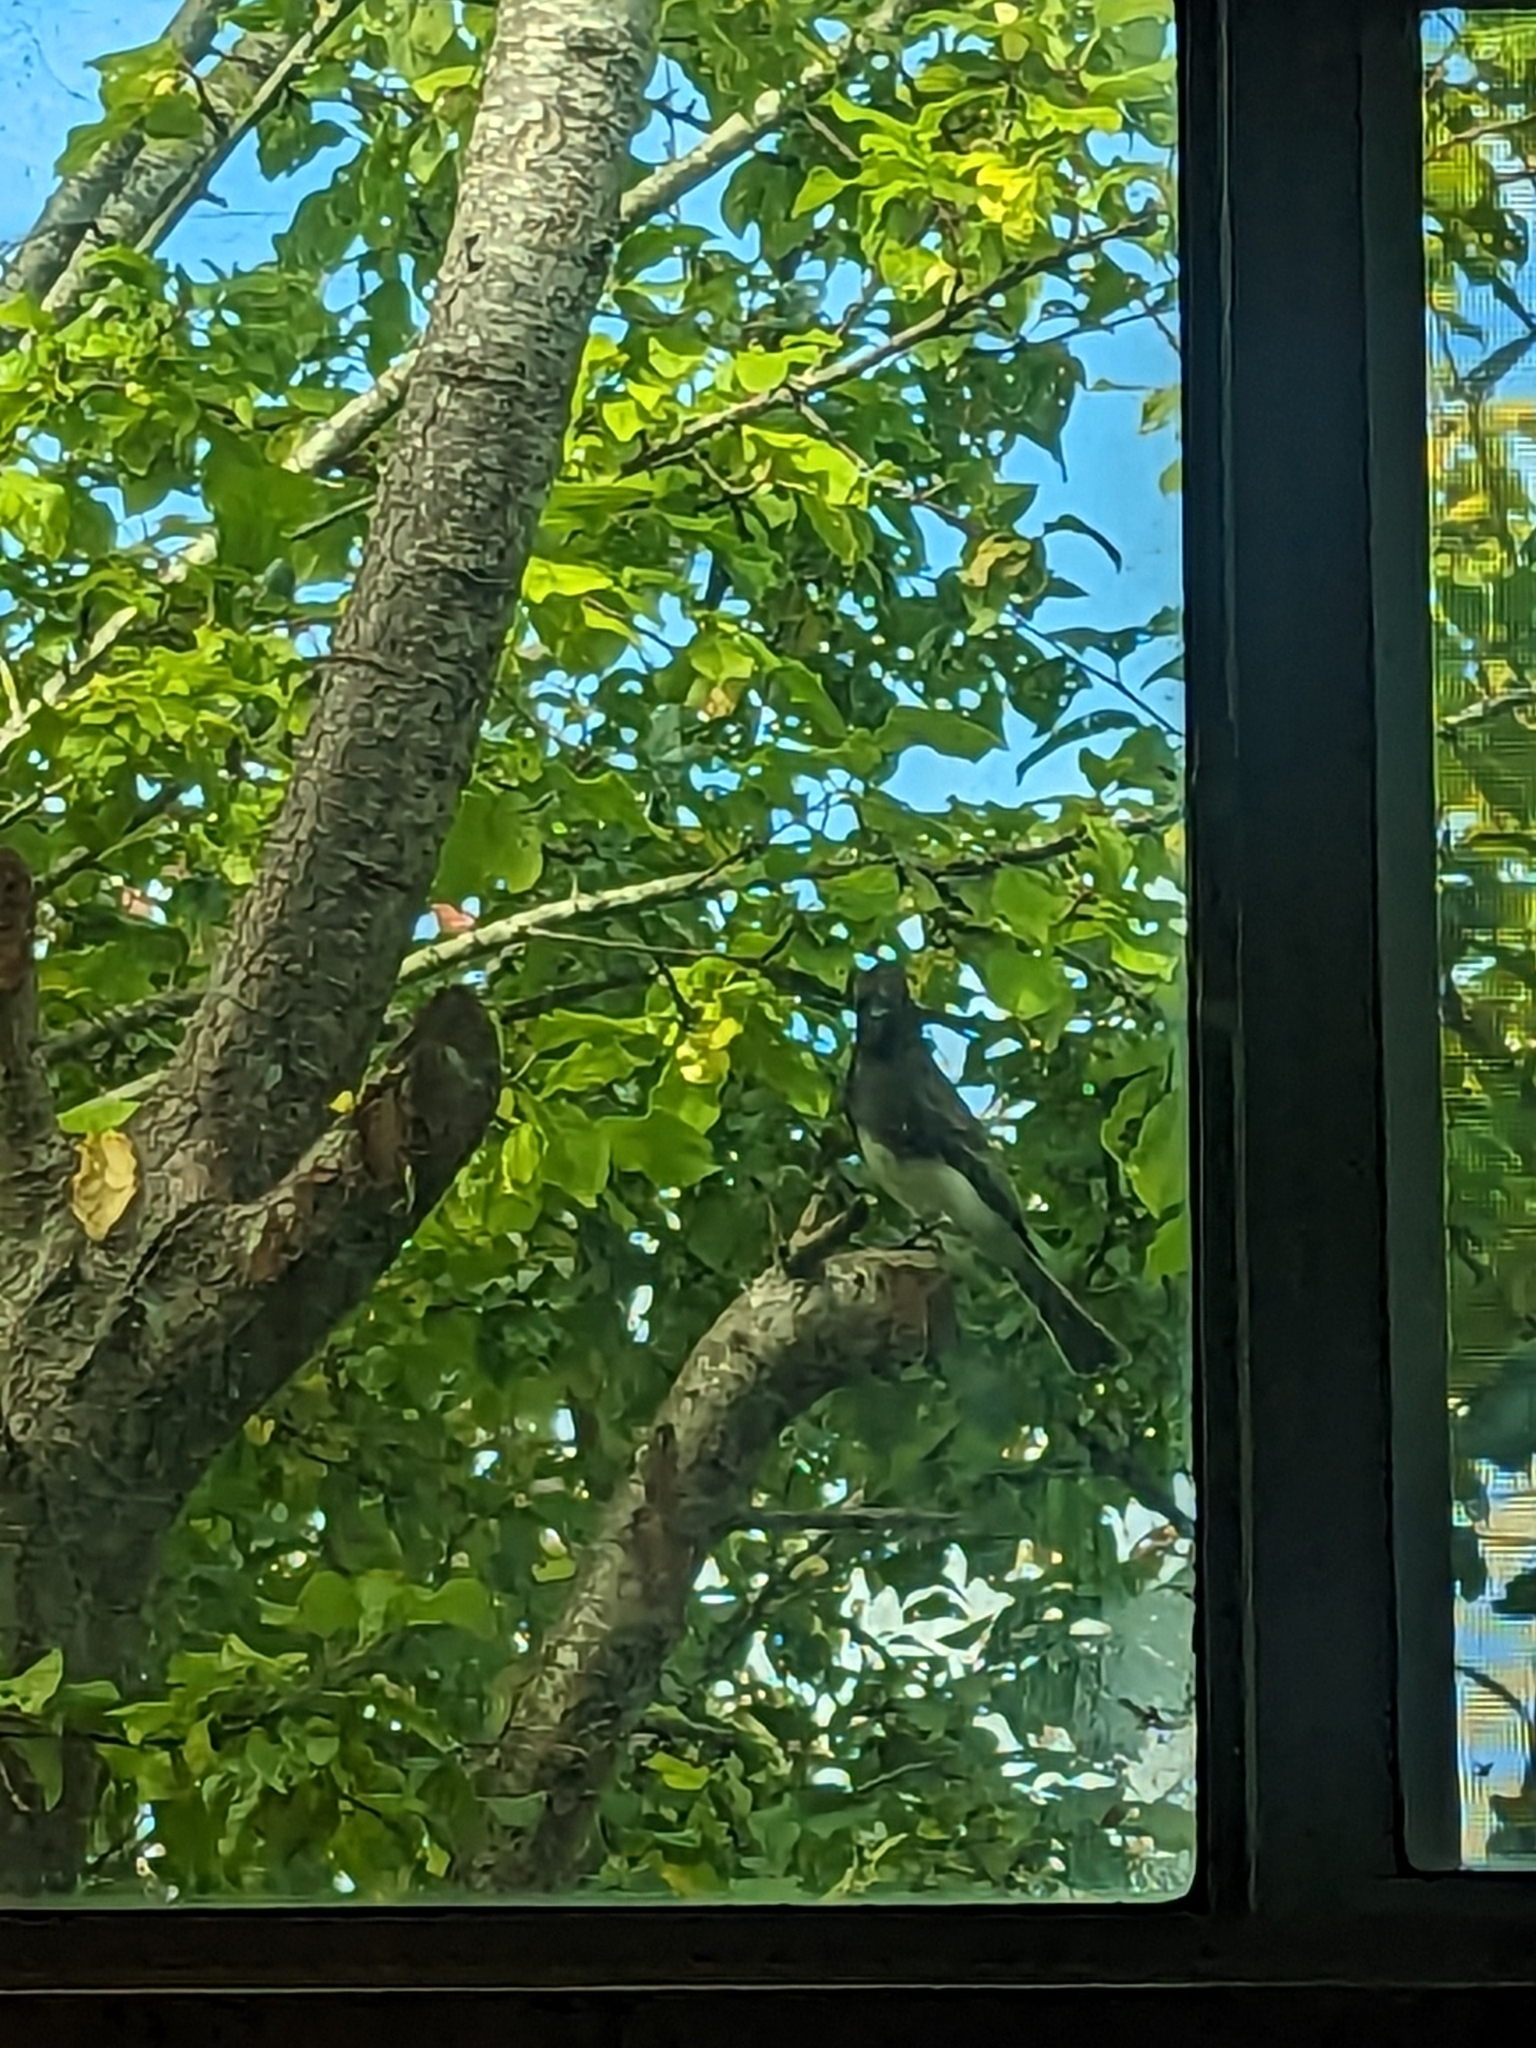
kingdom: Animalia
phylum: Chordata
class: Aves
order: Passeriformes
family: Tyrannidae
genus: Sayornis
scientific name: Sayornis nigricans
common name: Black phoebe
